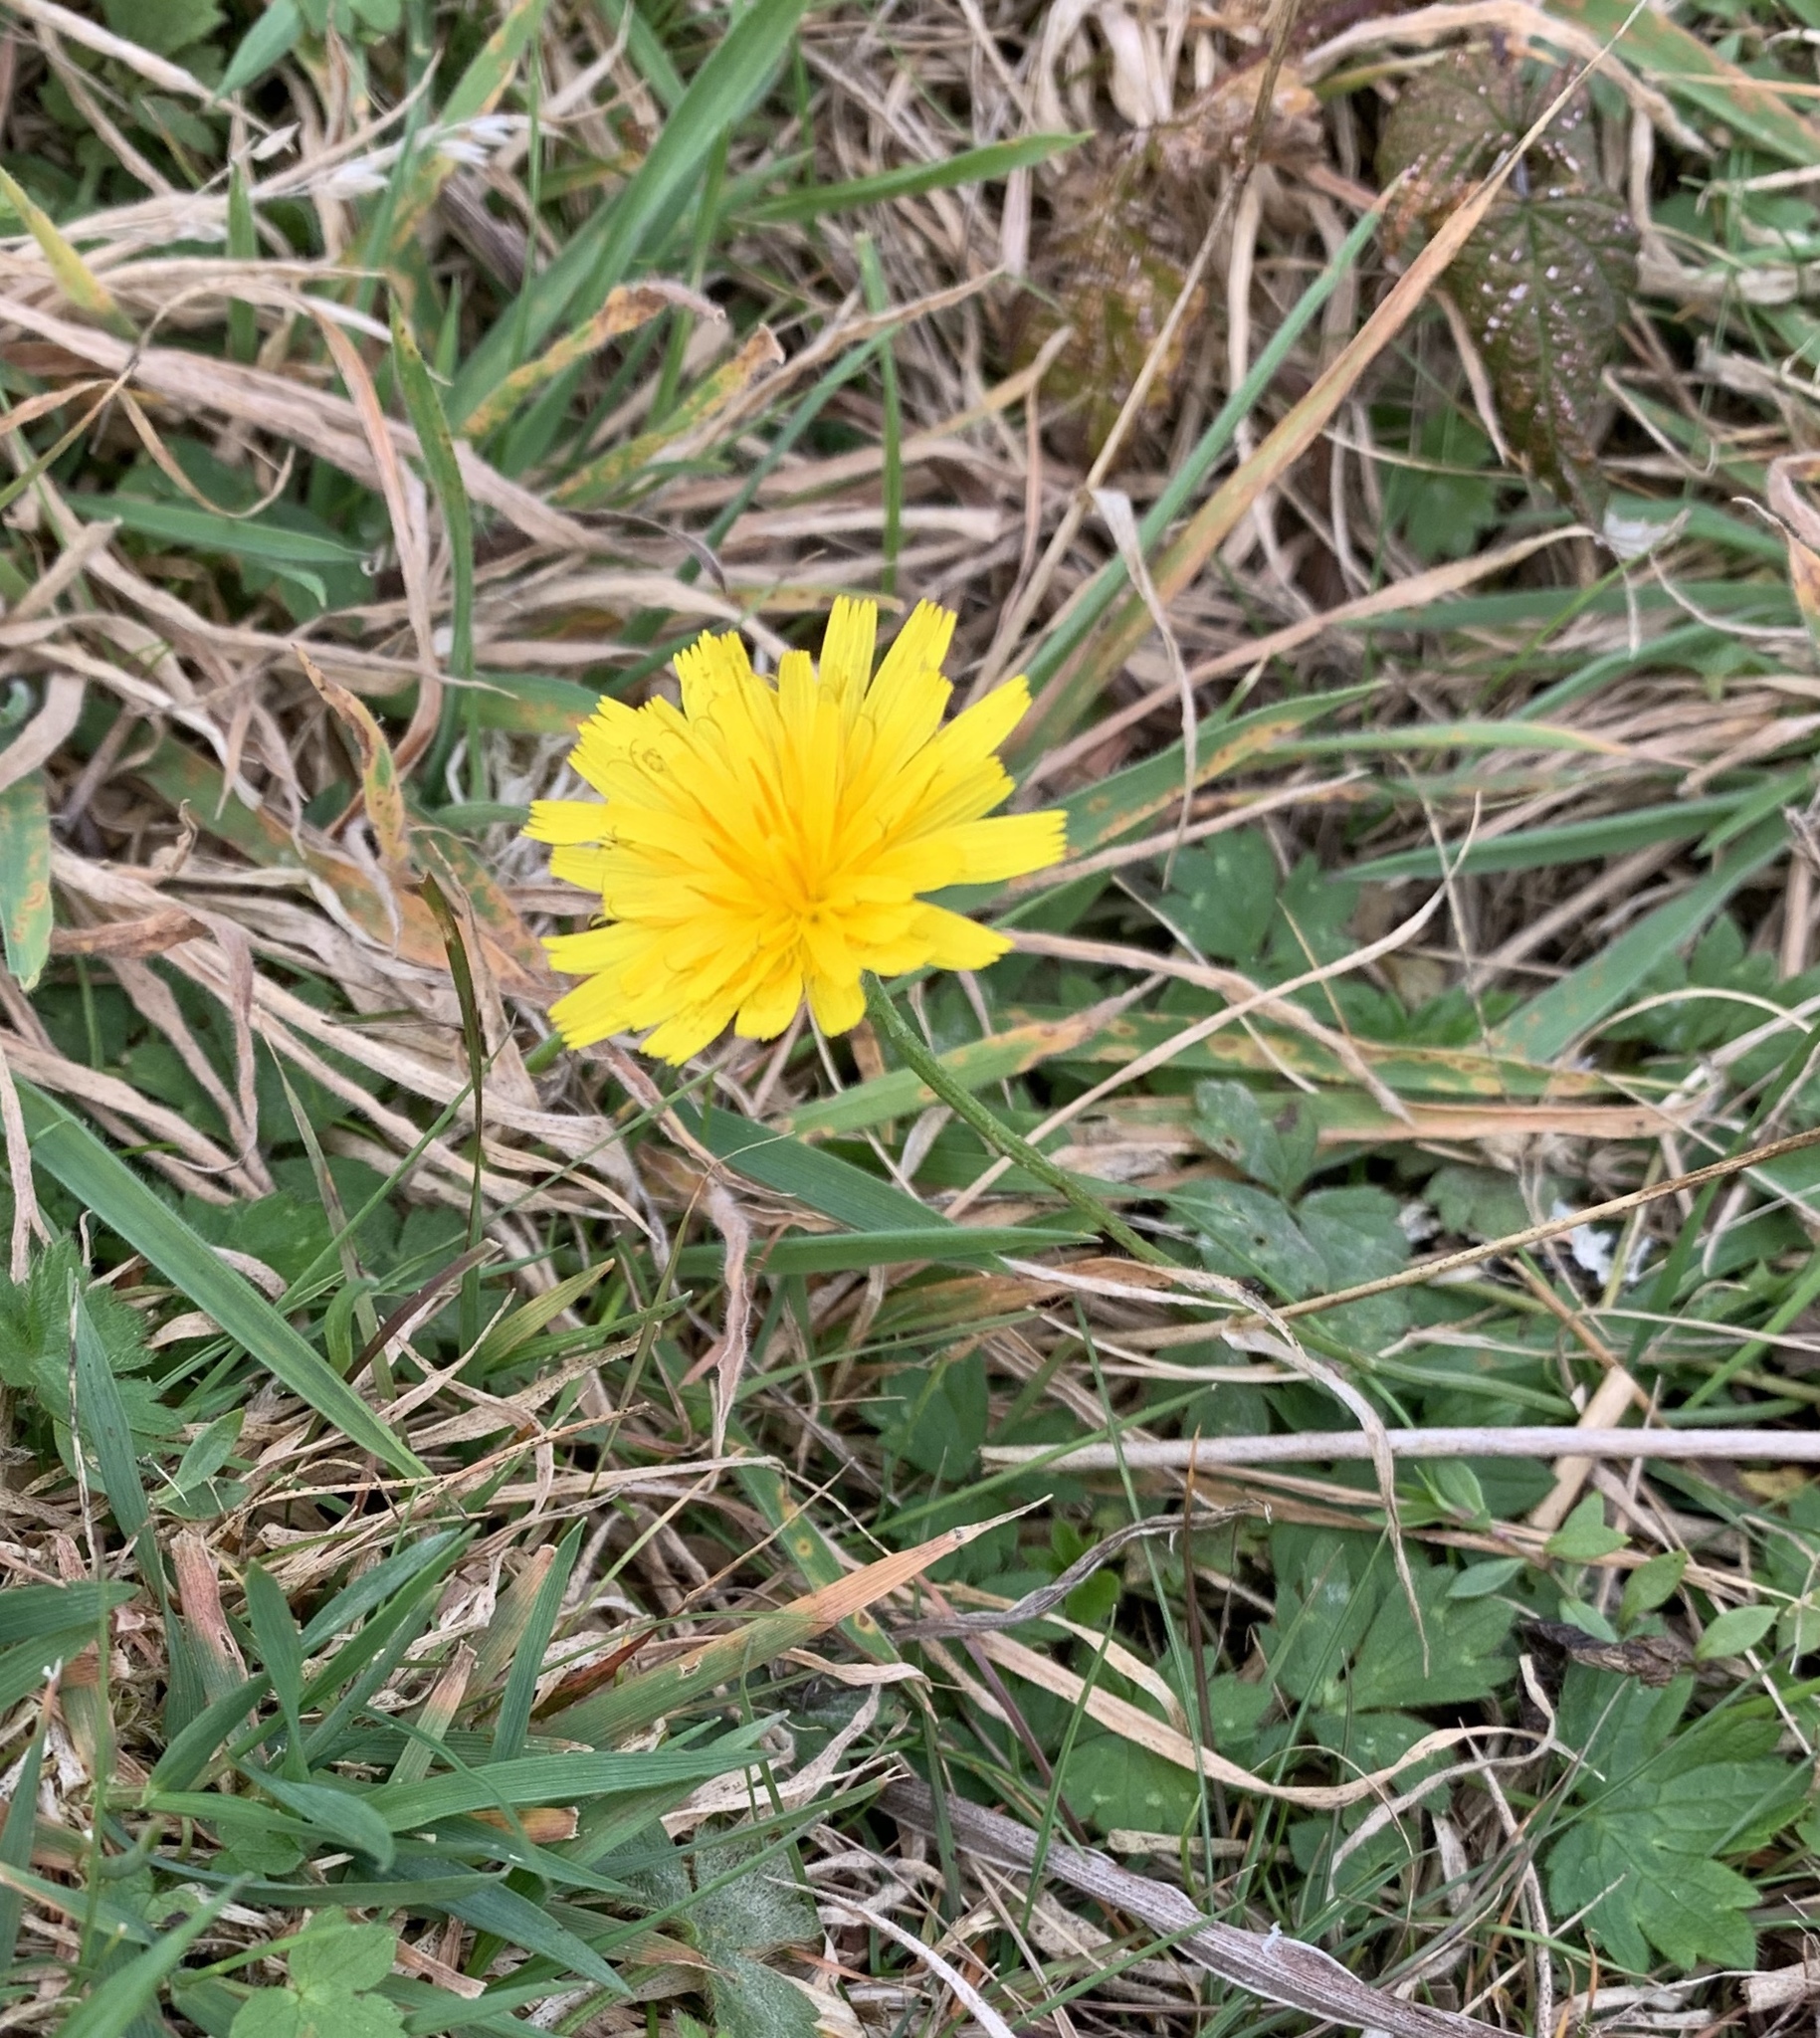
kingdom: Plantae
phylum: Tracheophyta
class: Magnoliopsida
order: Asterales
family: Asteraceae
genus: Scorzoneroides
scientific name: Scorzoneroides autumnalis
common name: Autumn hawkbit
